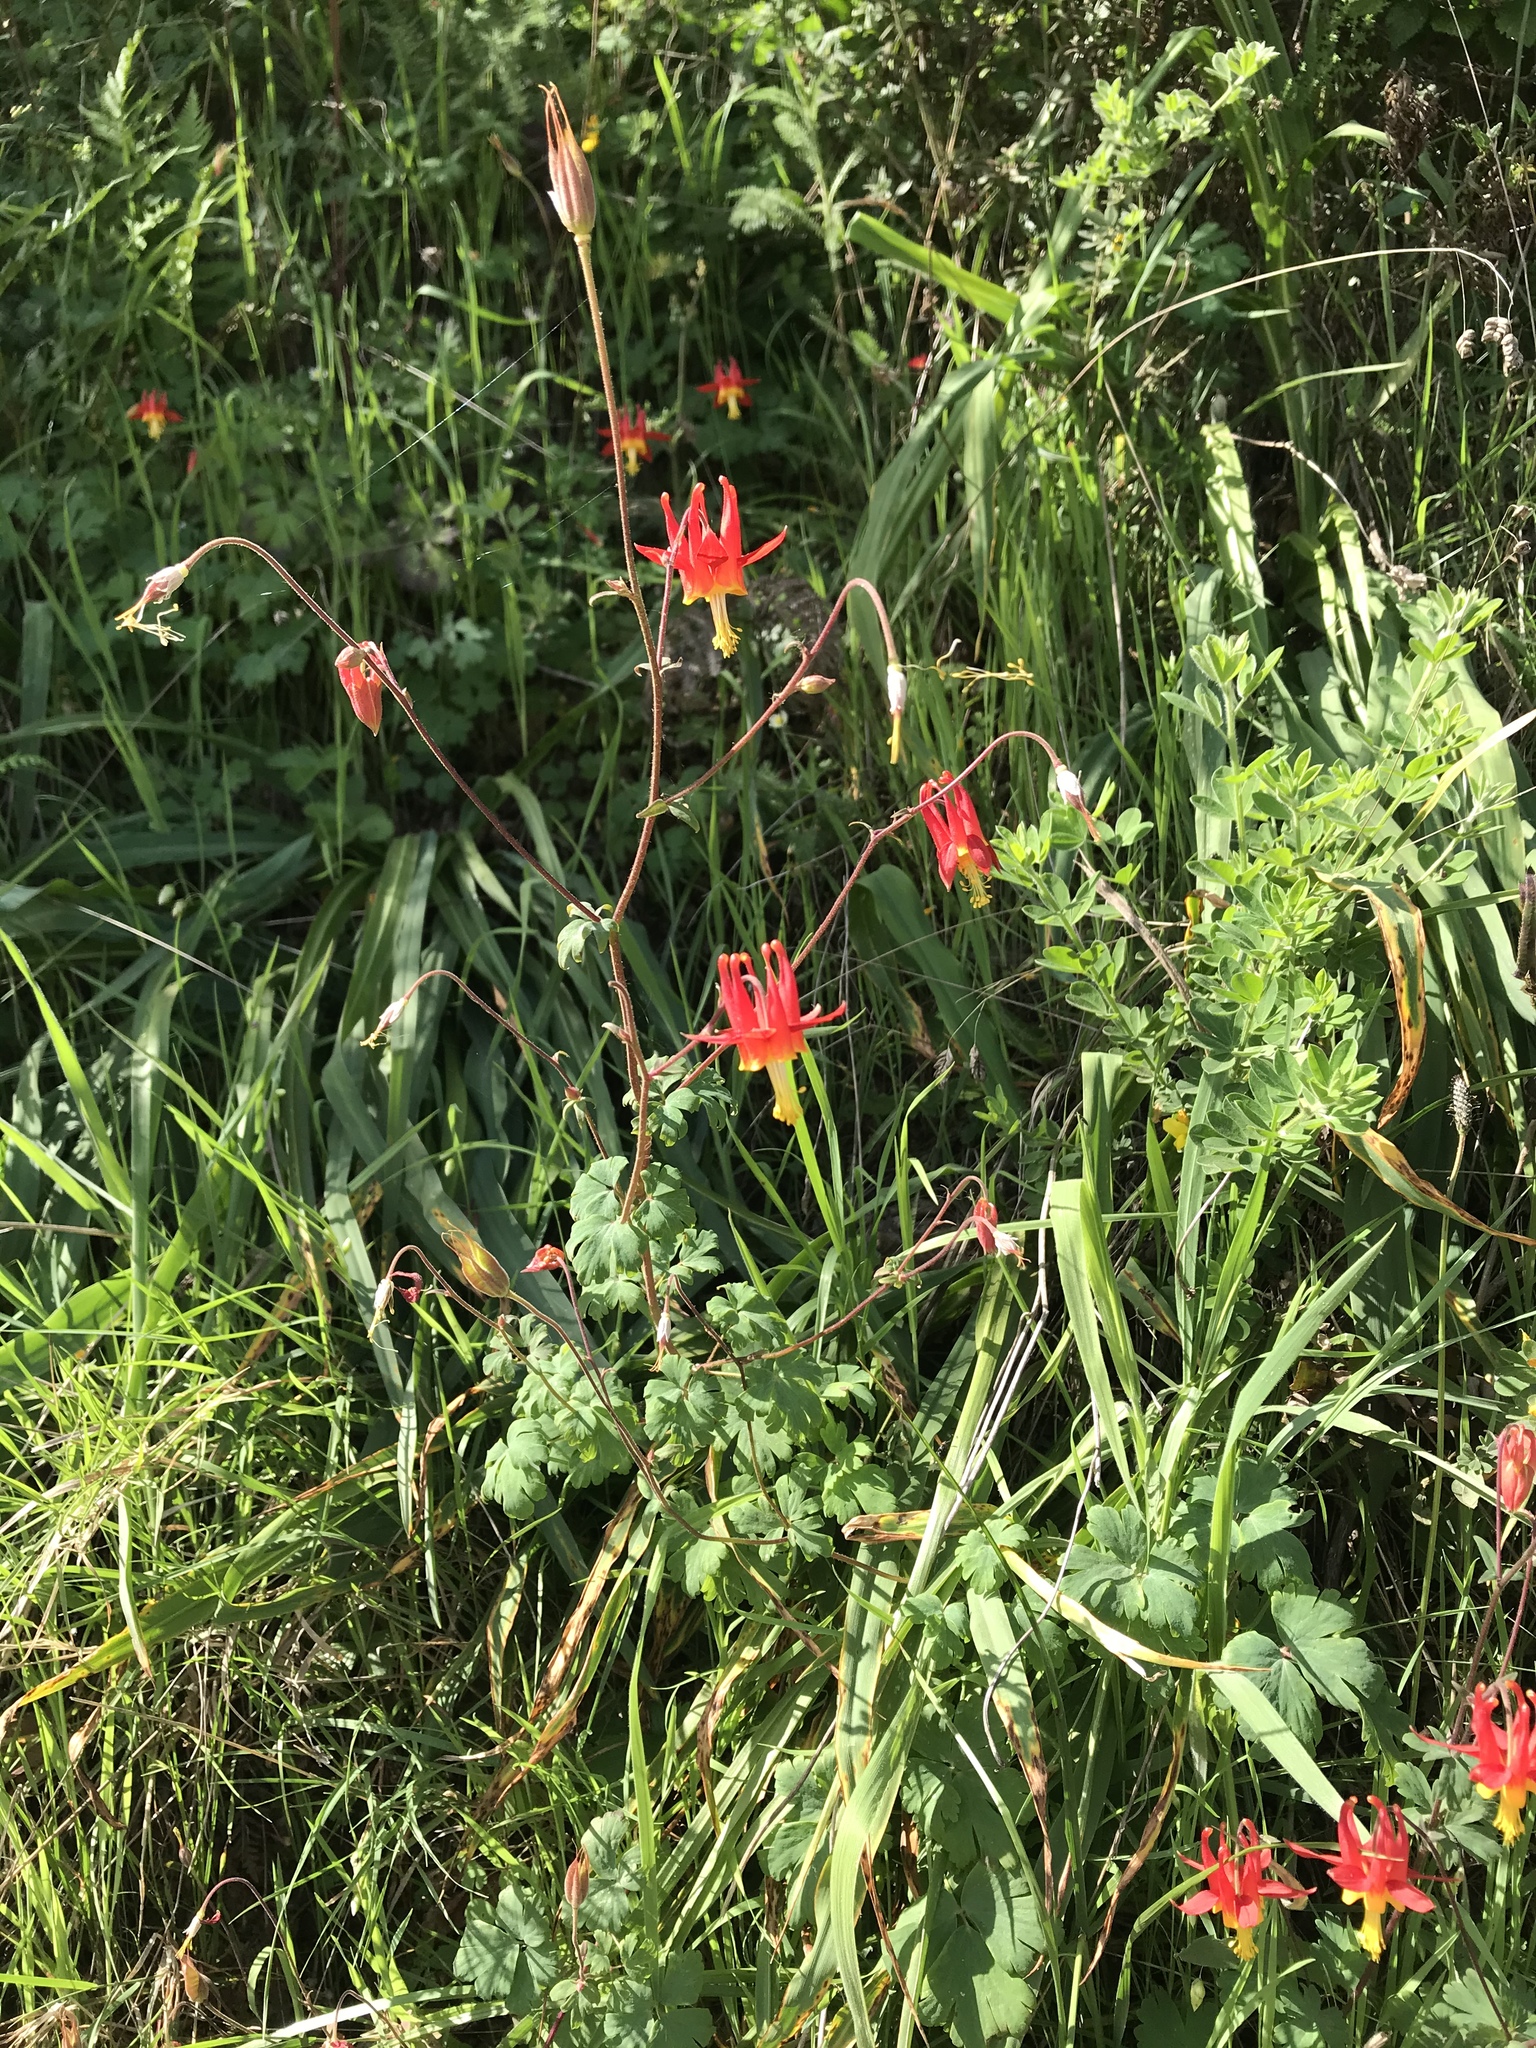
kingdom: Plantae
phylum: Tracheophyta
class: Magnoliopsida
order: Ranunculales
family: Ranunculaceae
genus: Aquilegia
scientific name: Aquilegia formosa
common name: Sitka columbine
